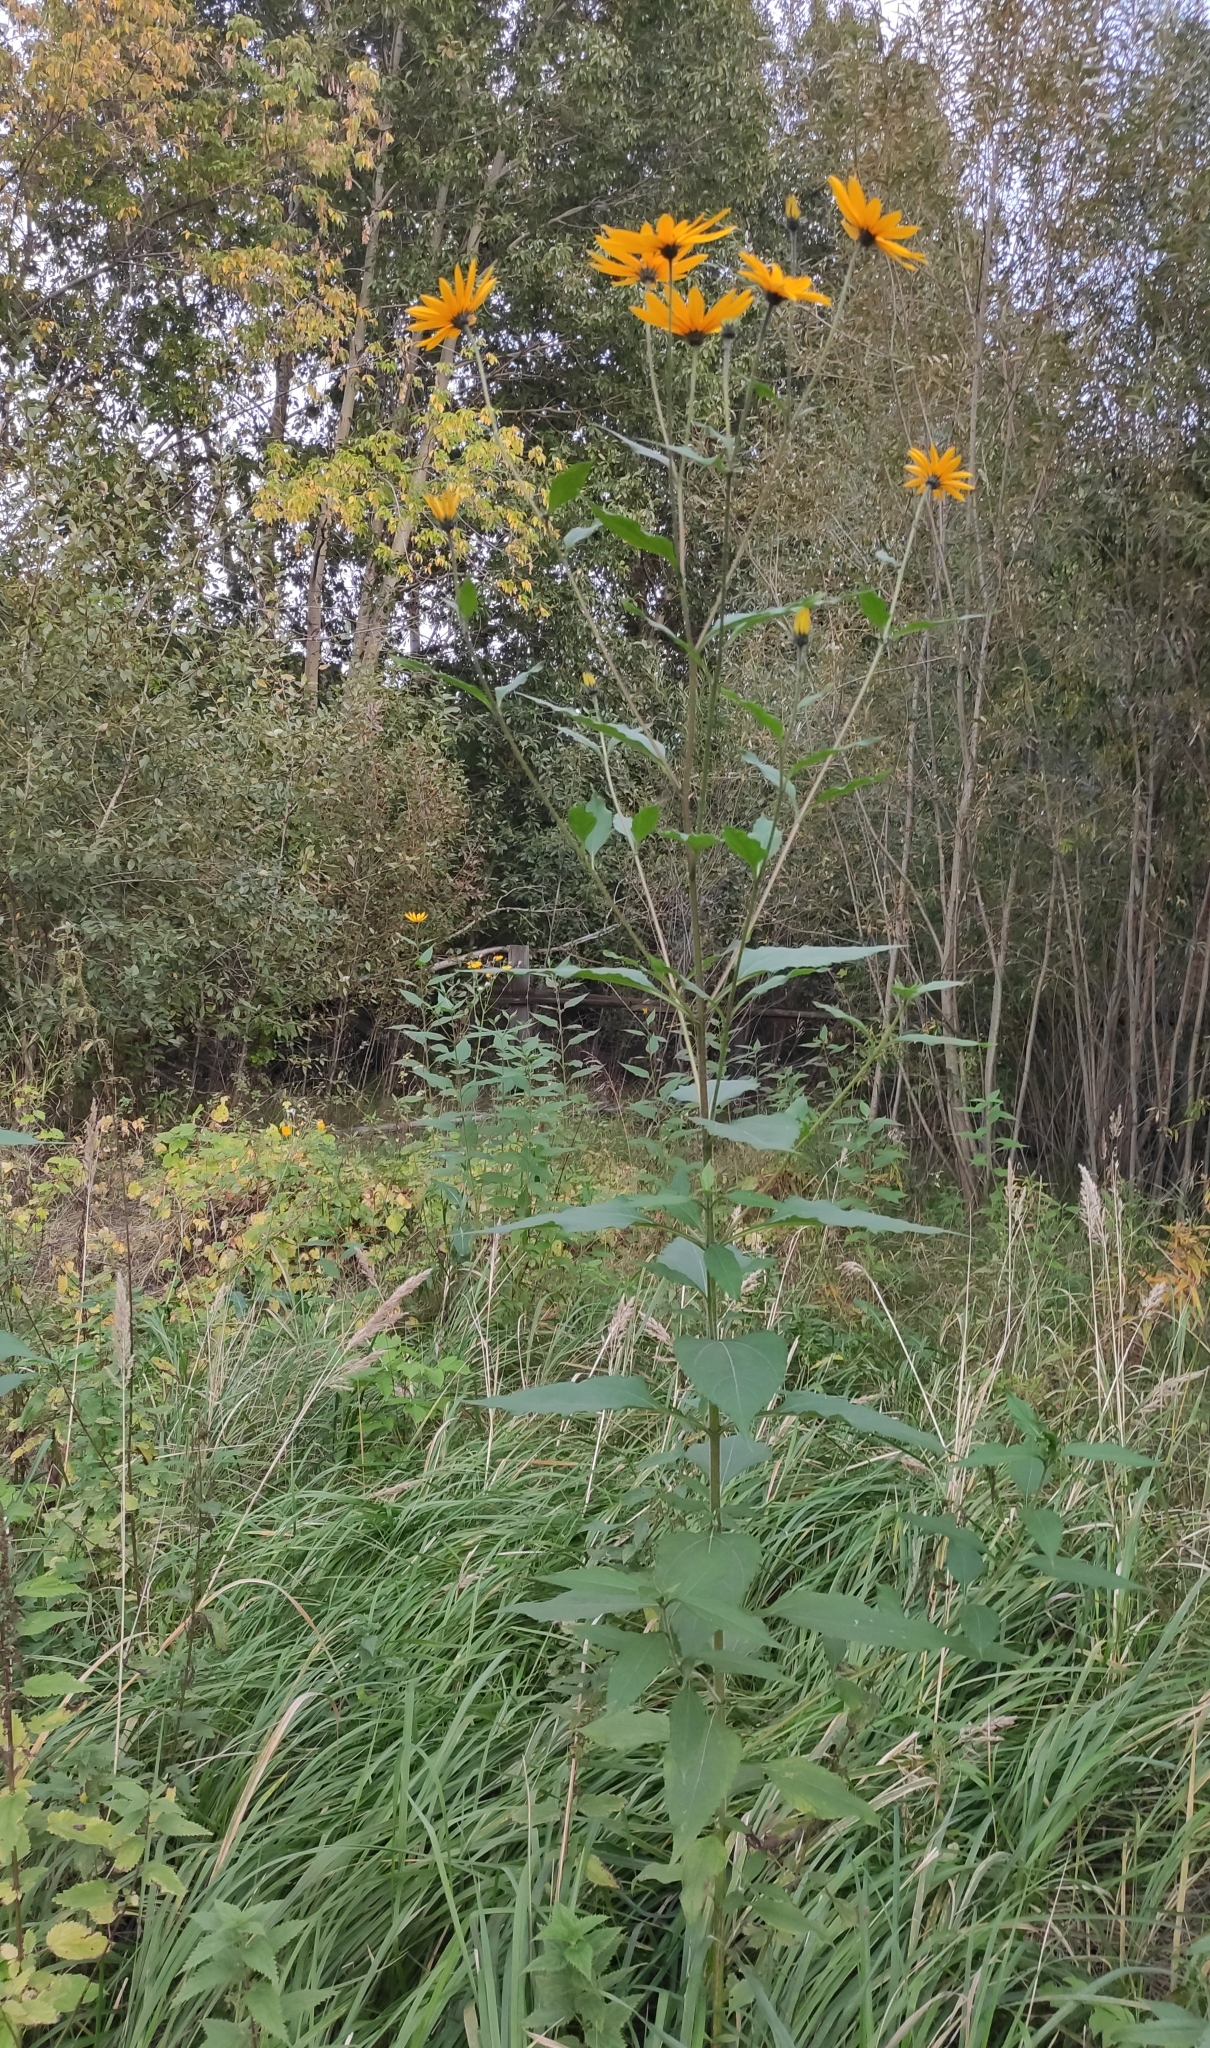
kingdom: Plantae
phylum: Tracheophyta
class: Magnoliopsida
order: Asterales
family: Asteraceae
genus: Helianthus
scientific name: Helianthus tuberosus
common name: Jerusalem artichoke
